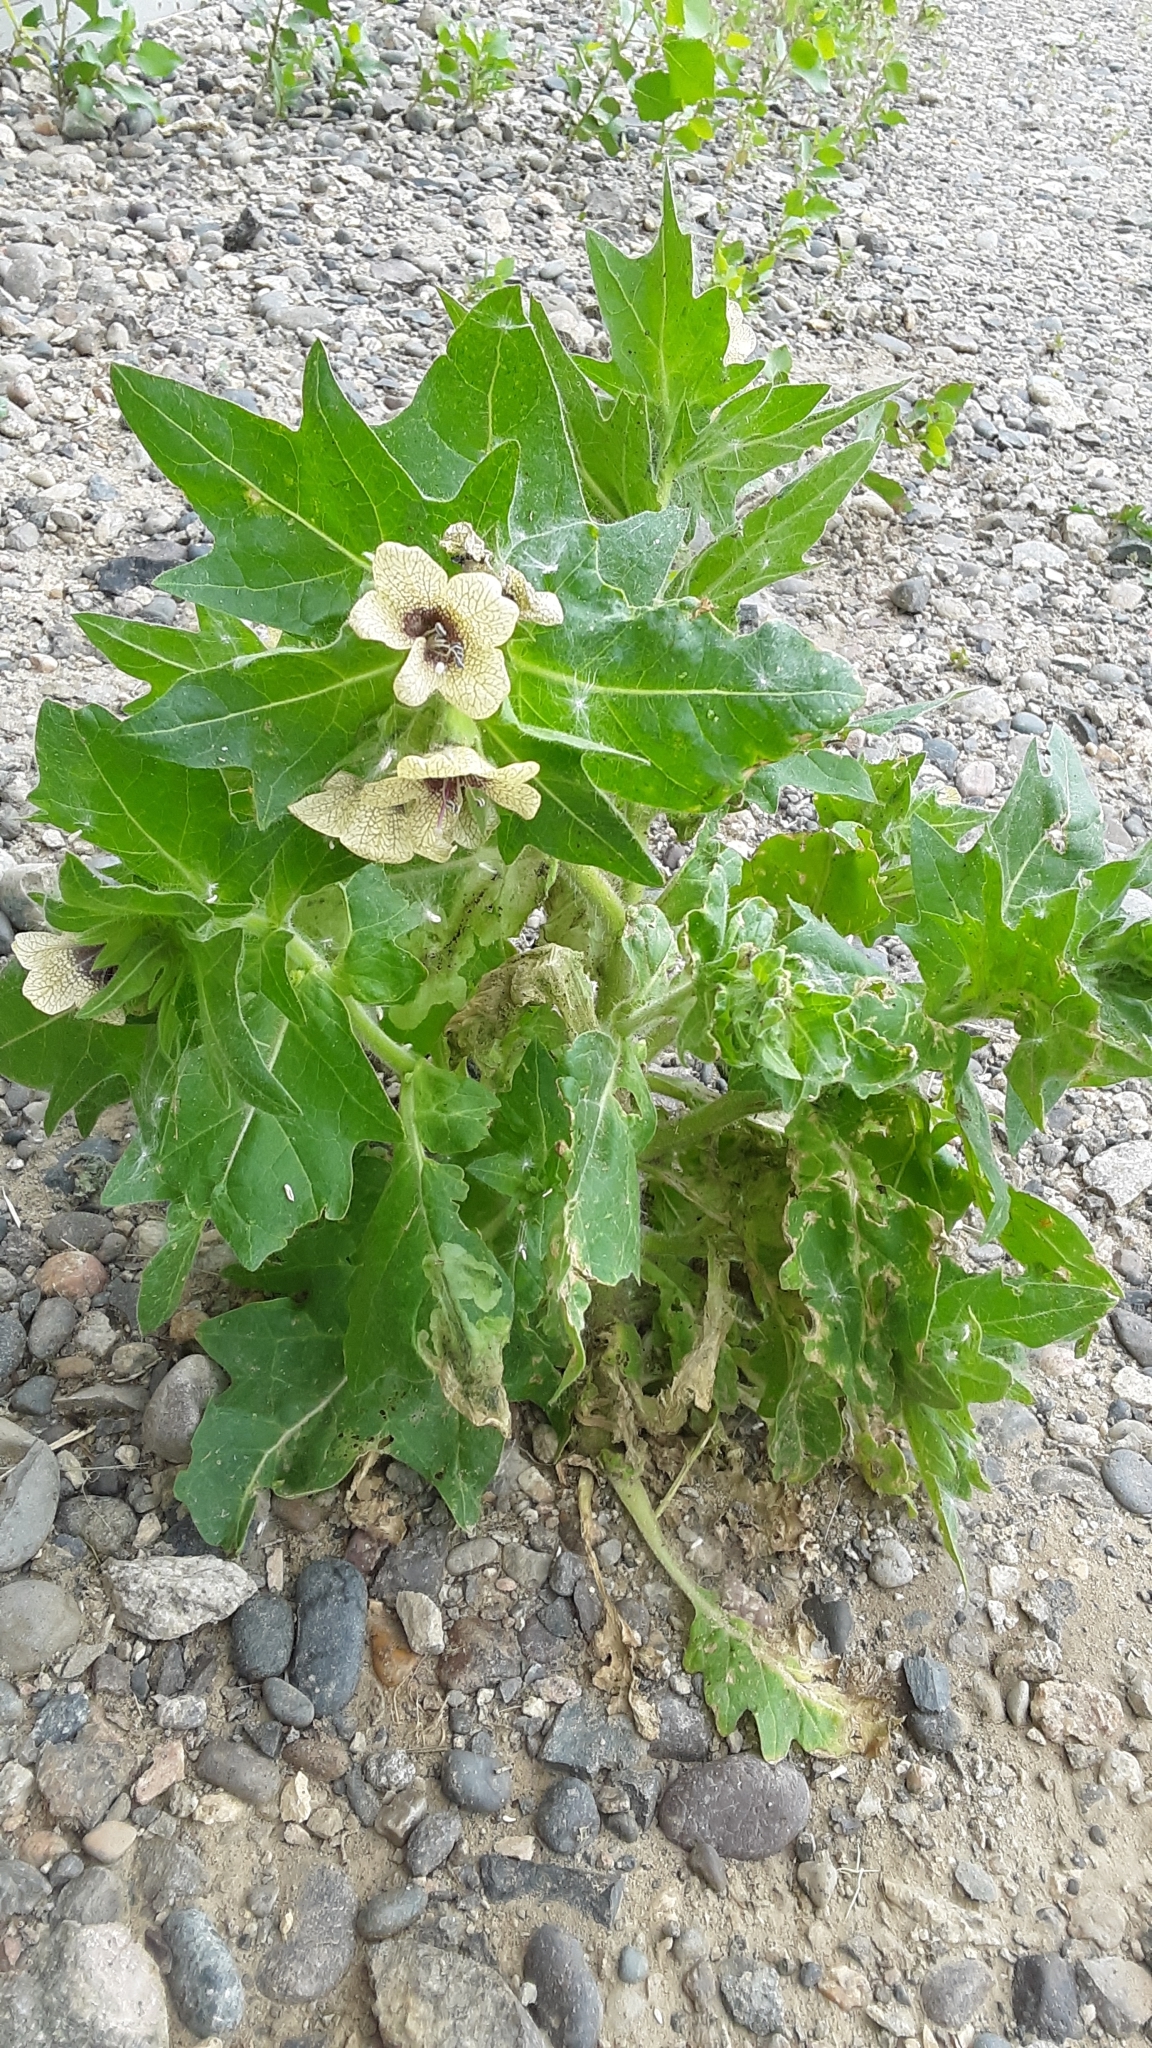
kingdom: Plantae
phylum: Tracheophyta
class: Magnoliopsida
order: Solanales
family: Solanaceae
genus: Hyoscyamus
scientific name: Hyoscyamus niger
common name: Henbane
